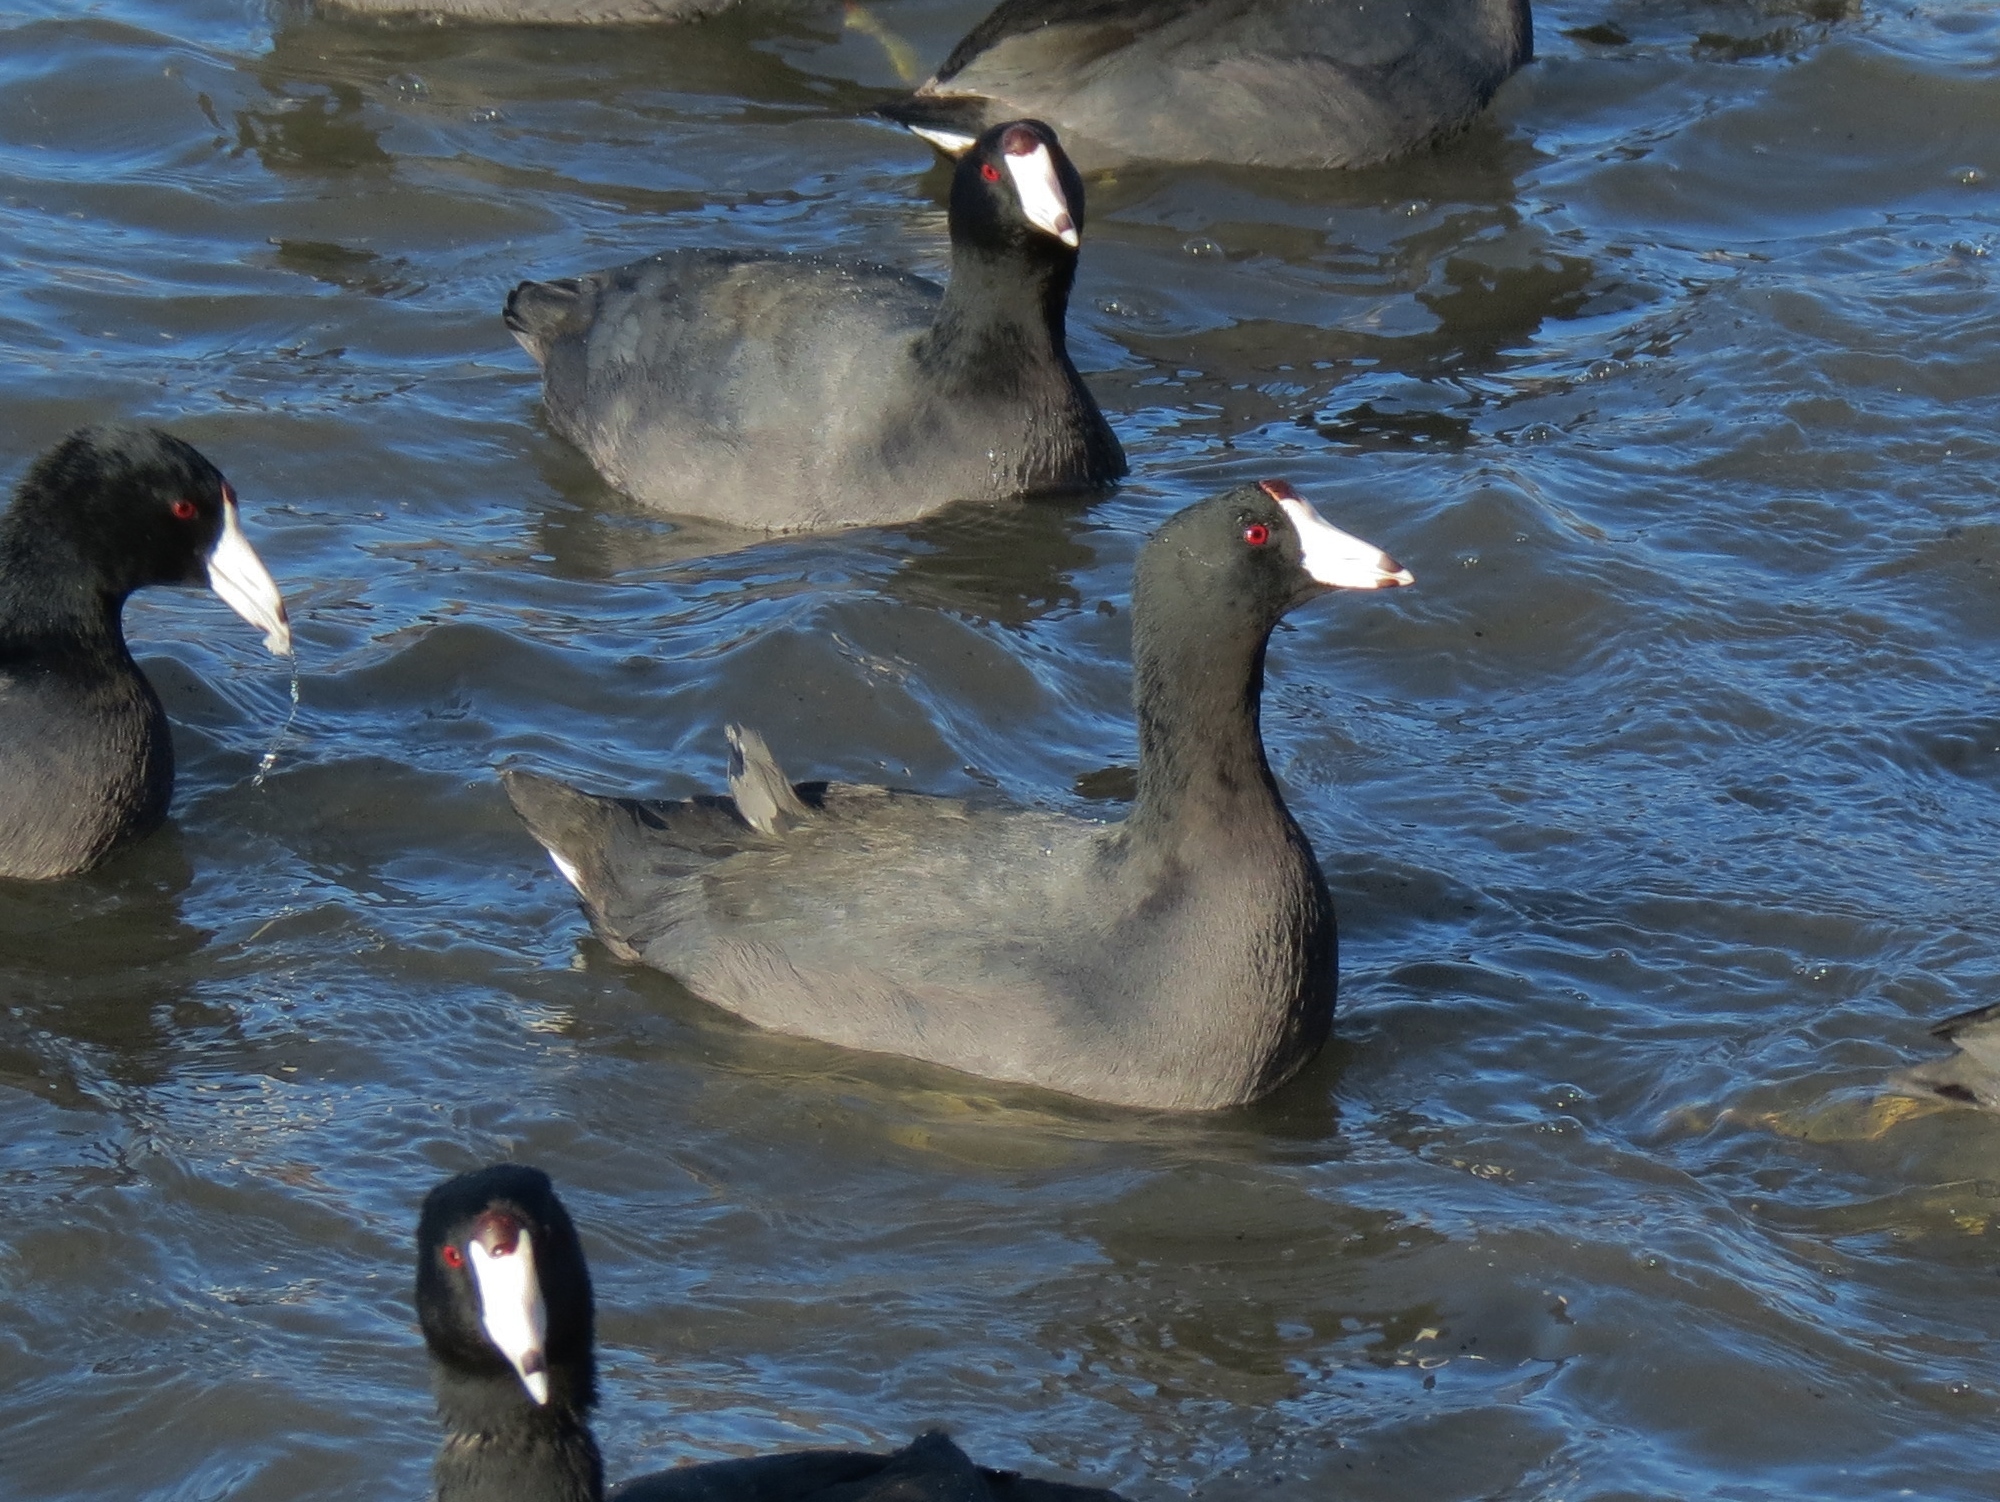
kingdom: Animalia
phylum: Chordata
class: Aves
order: Gruiformes
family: Rallidae
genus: Fulica
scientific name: Fulica americana
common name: American coot
